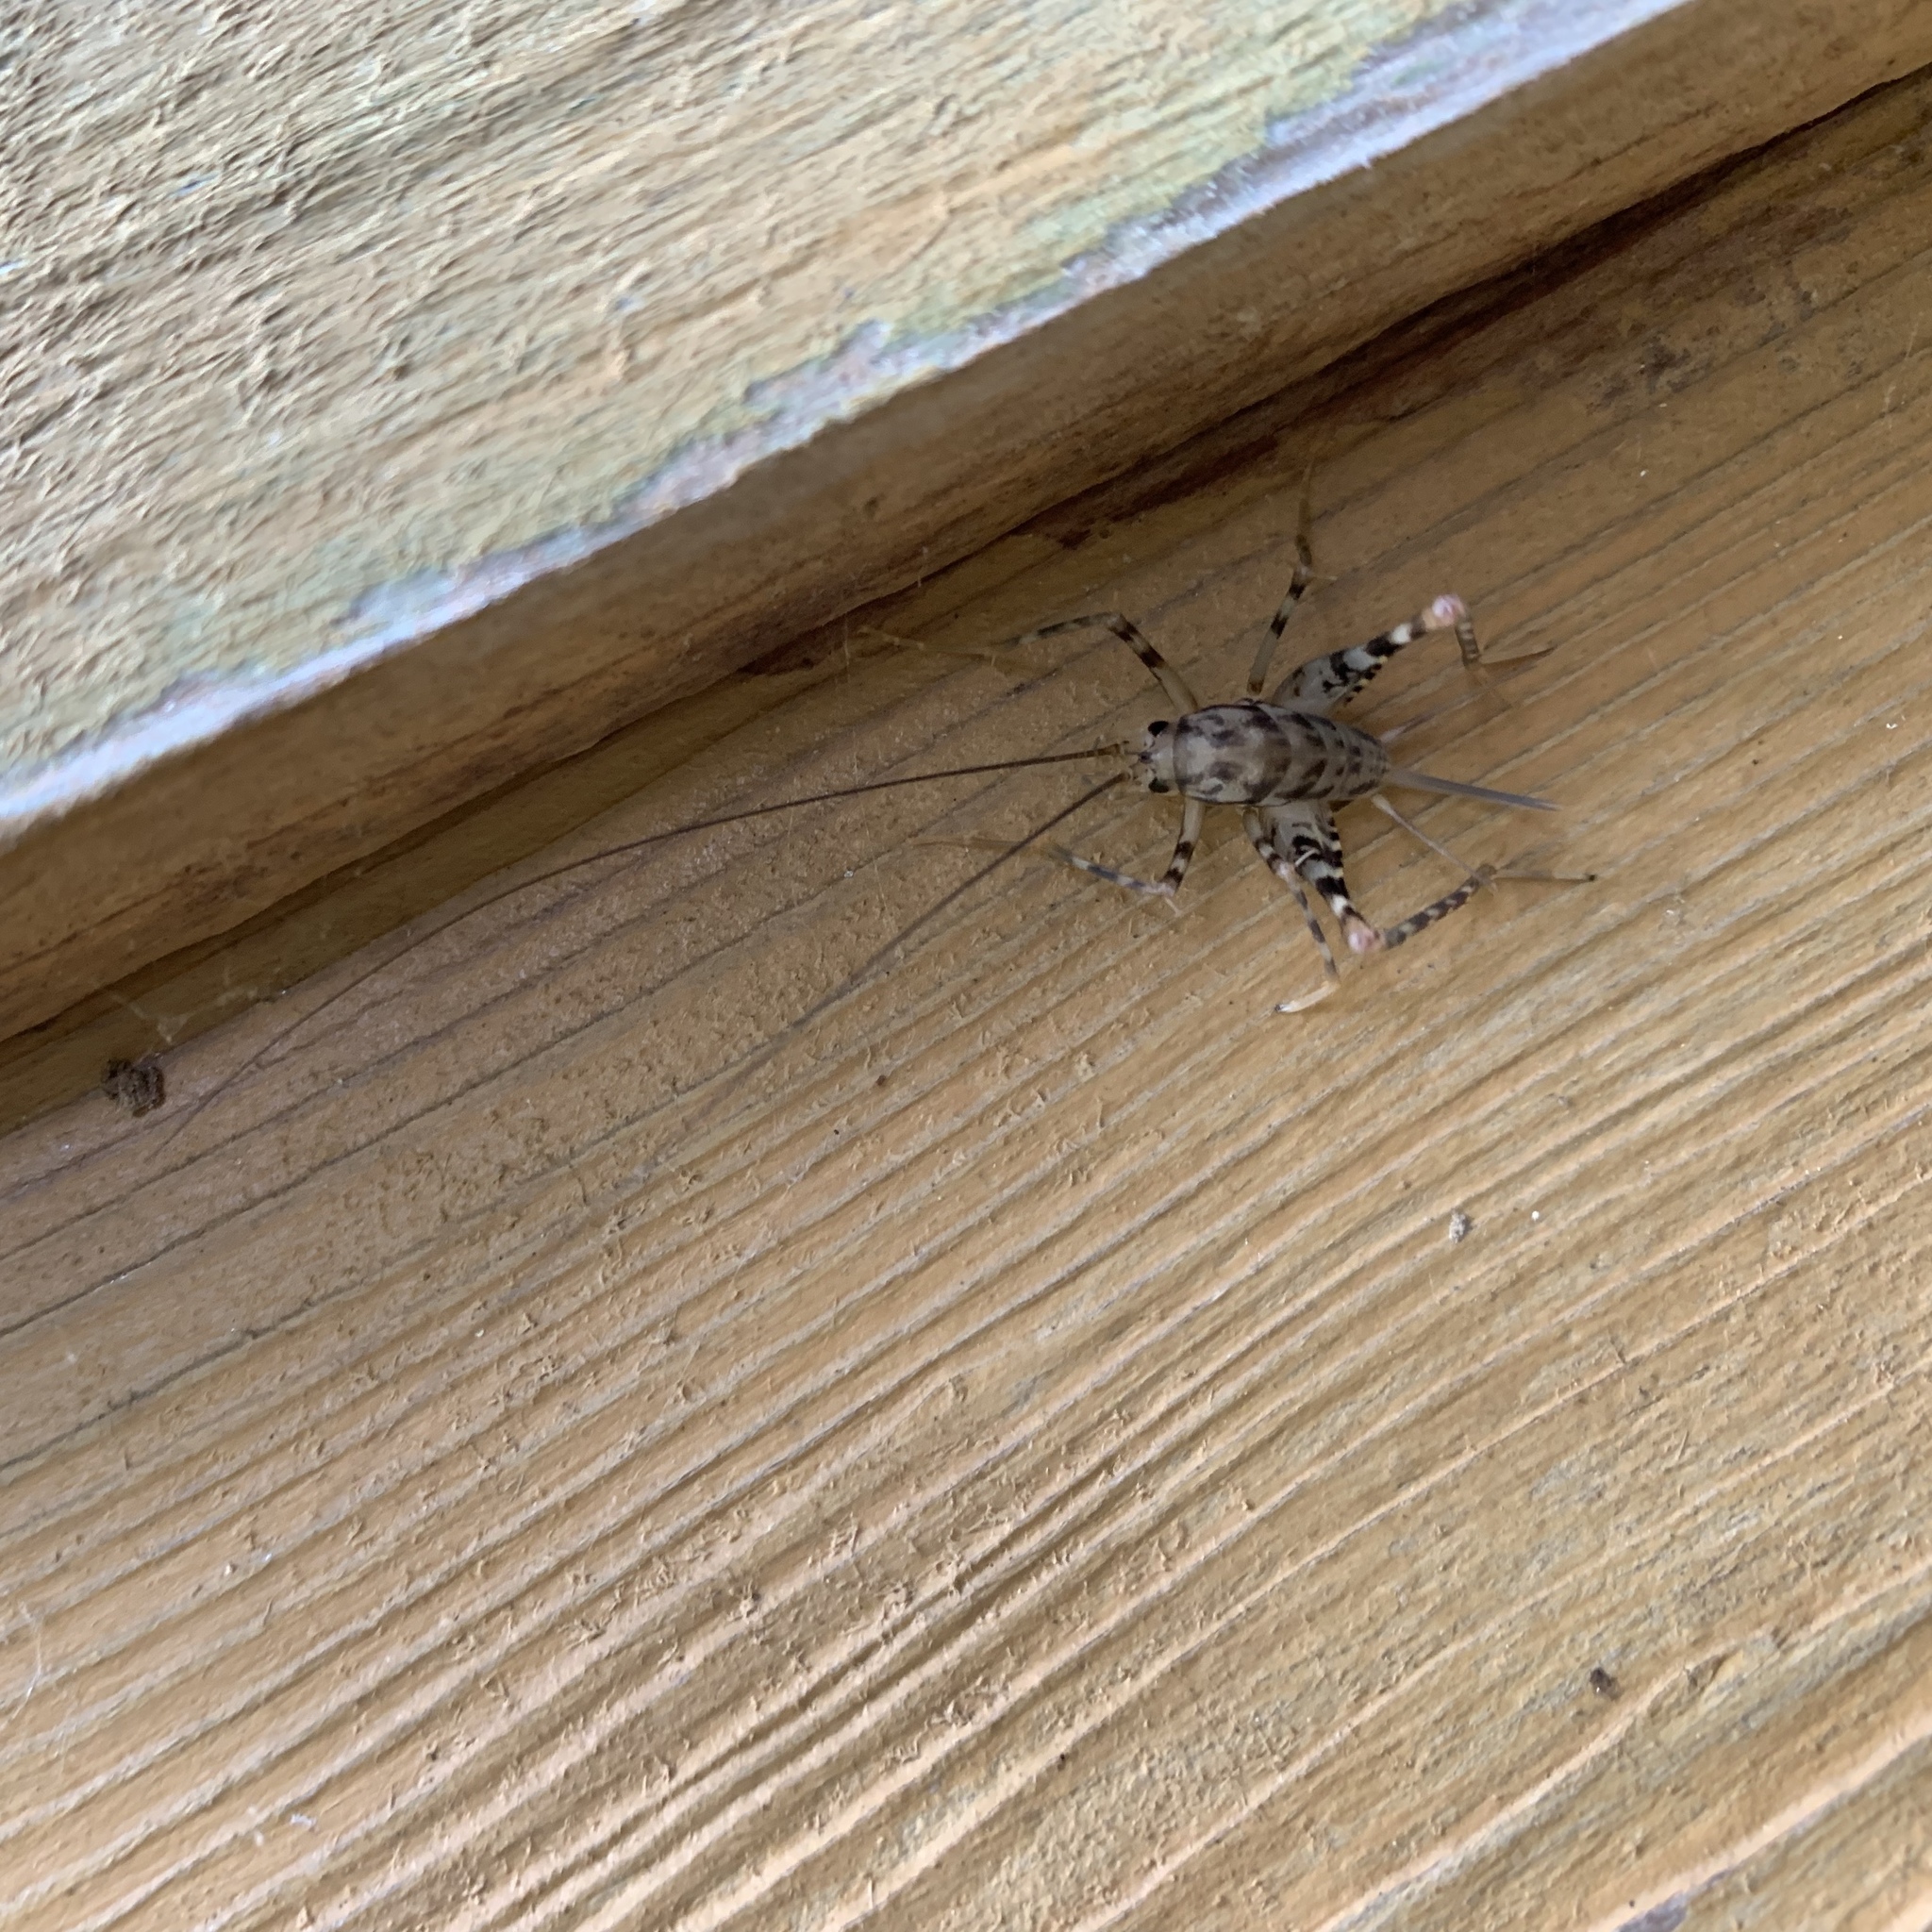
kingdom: Animalia
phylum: Arthropoda
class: Insecta
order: Orthoptera
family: Rhaphidophoridae
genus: Tachycines
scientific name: Tachycines asynamorus
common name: Greenhouse camel cricket
